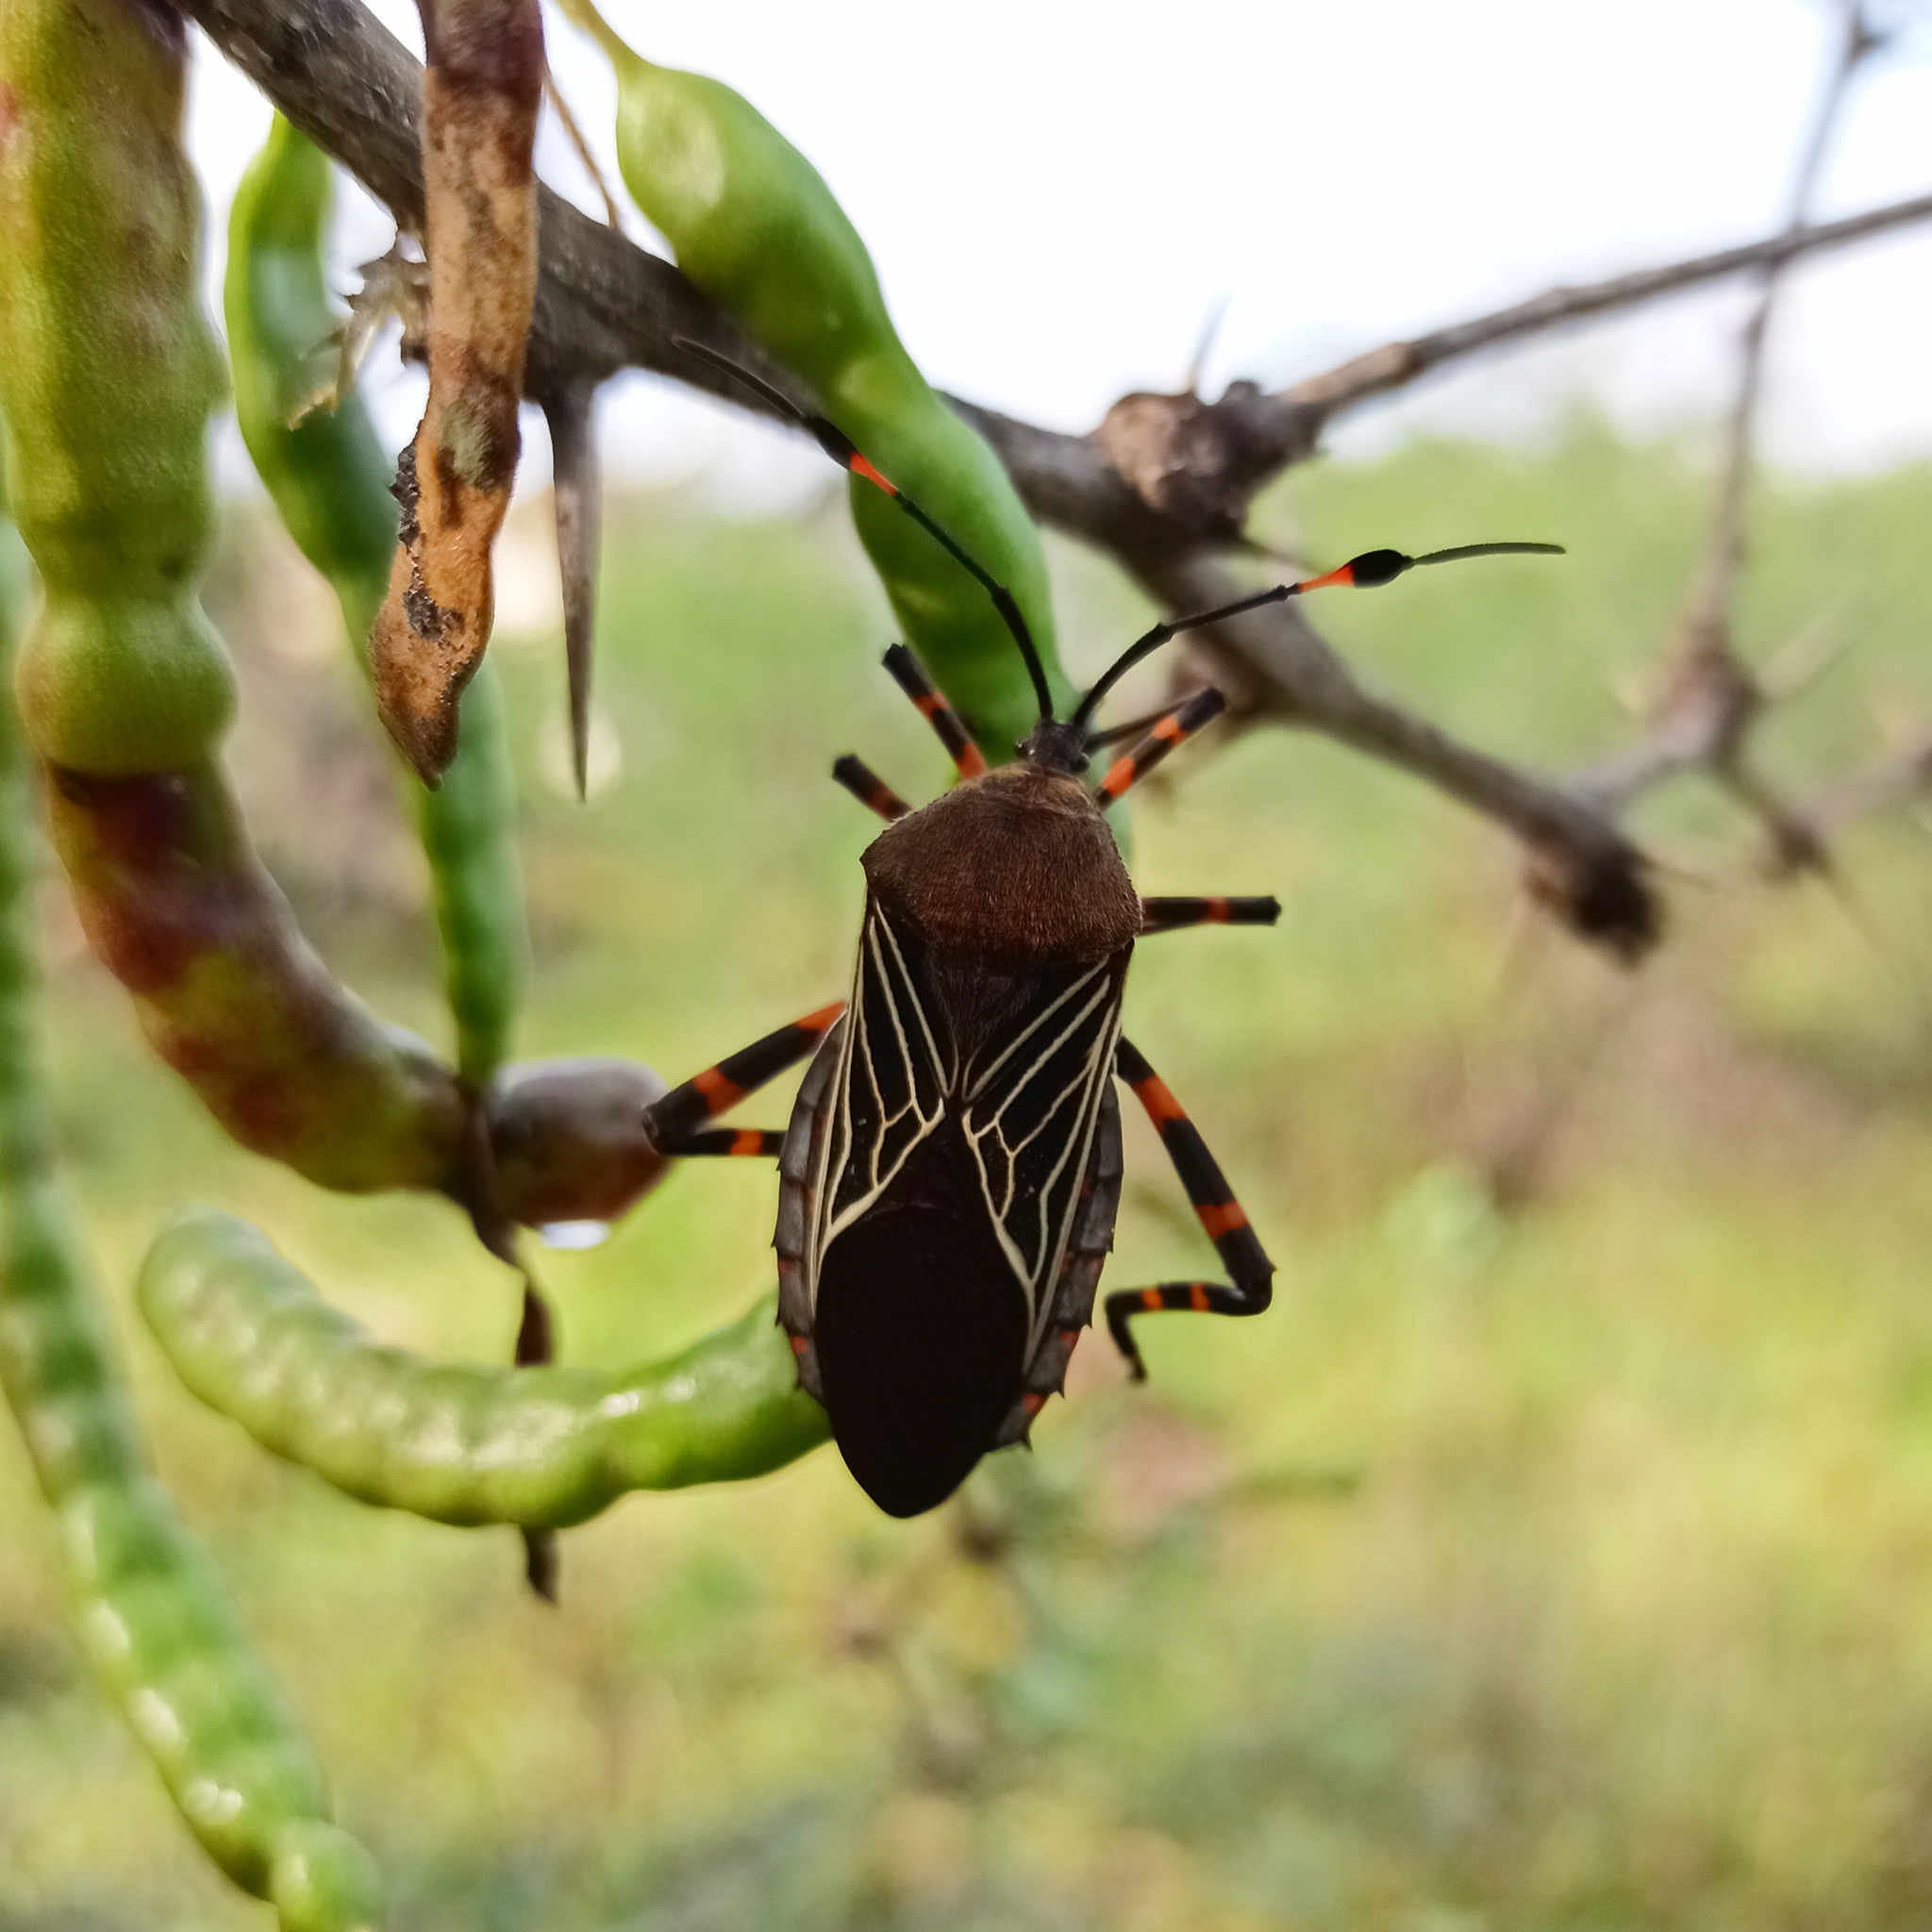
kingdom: Animalia
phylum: Arthropoda
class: Insecta
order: Hemiptera
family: Coreidae
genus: Thasus
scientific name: Thasus
